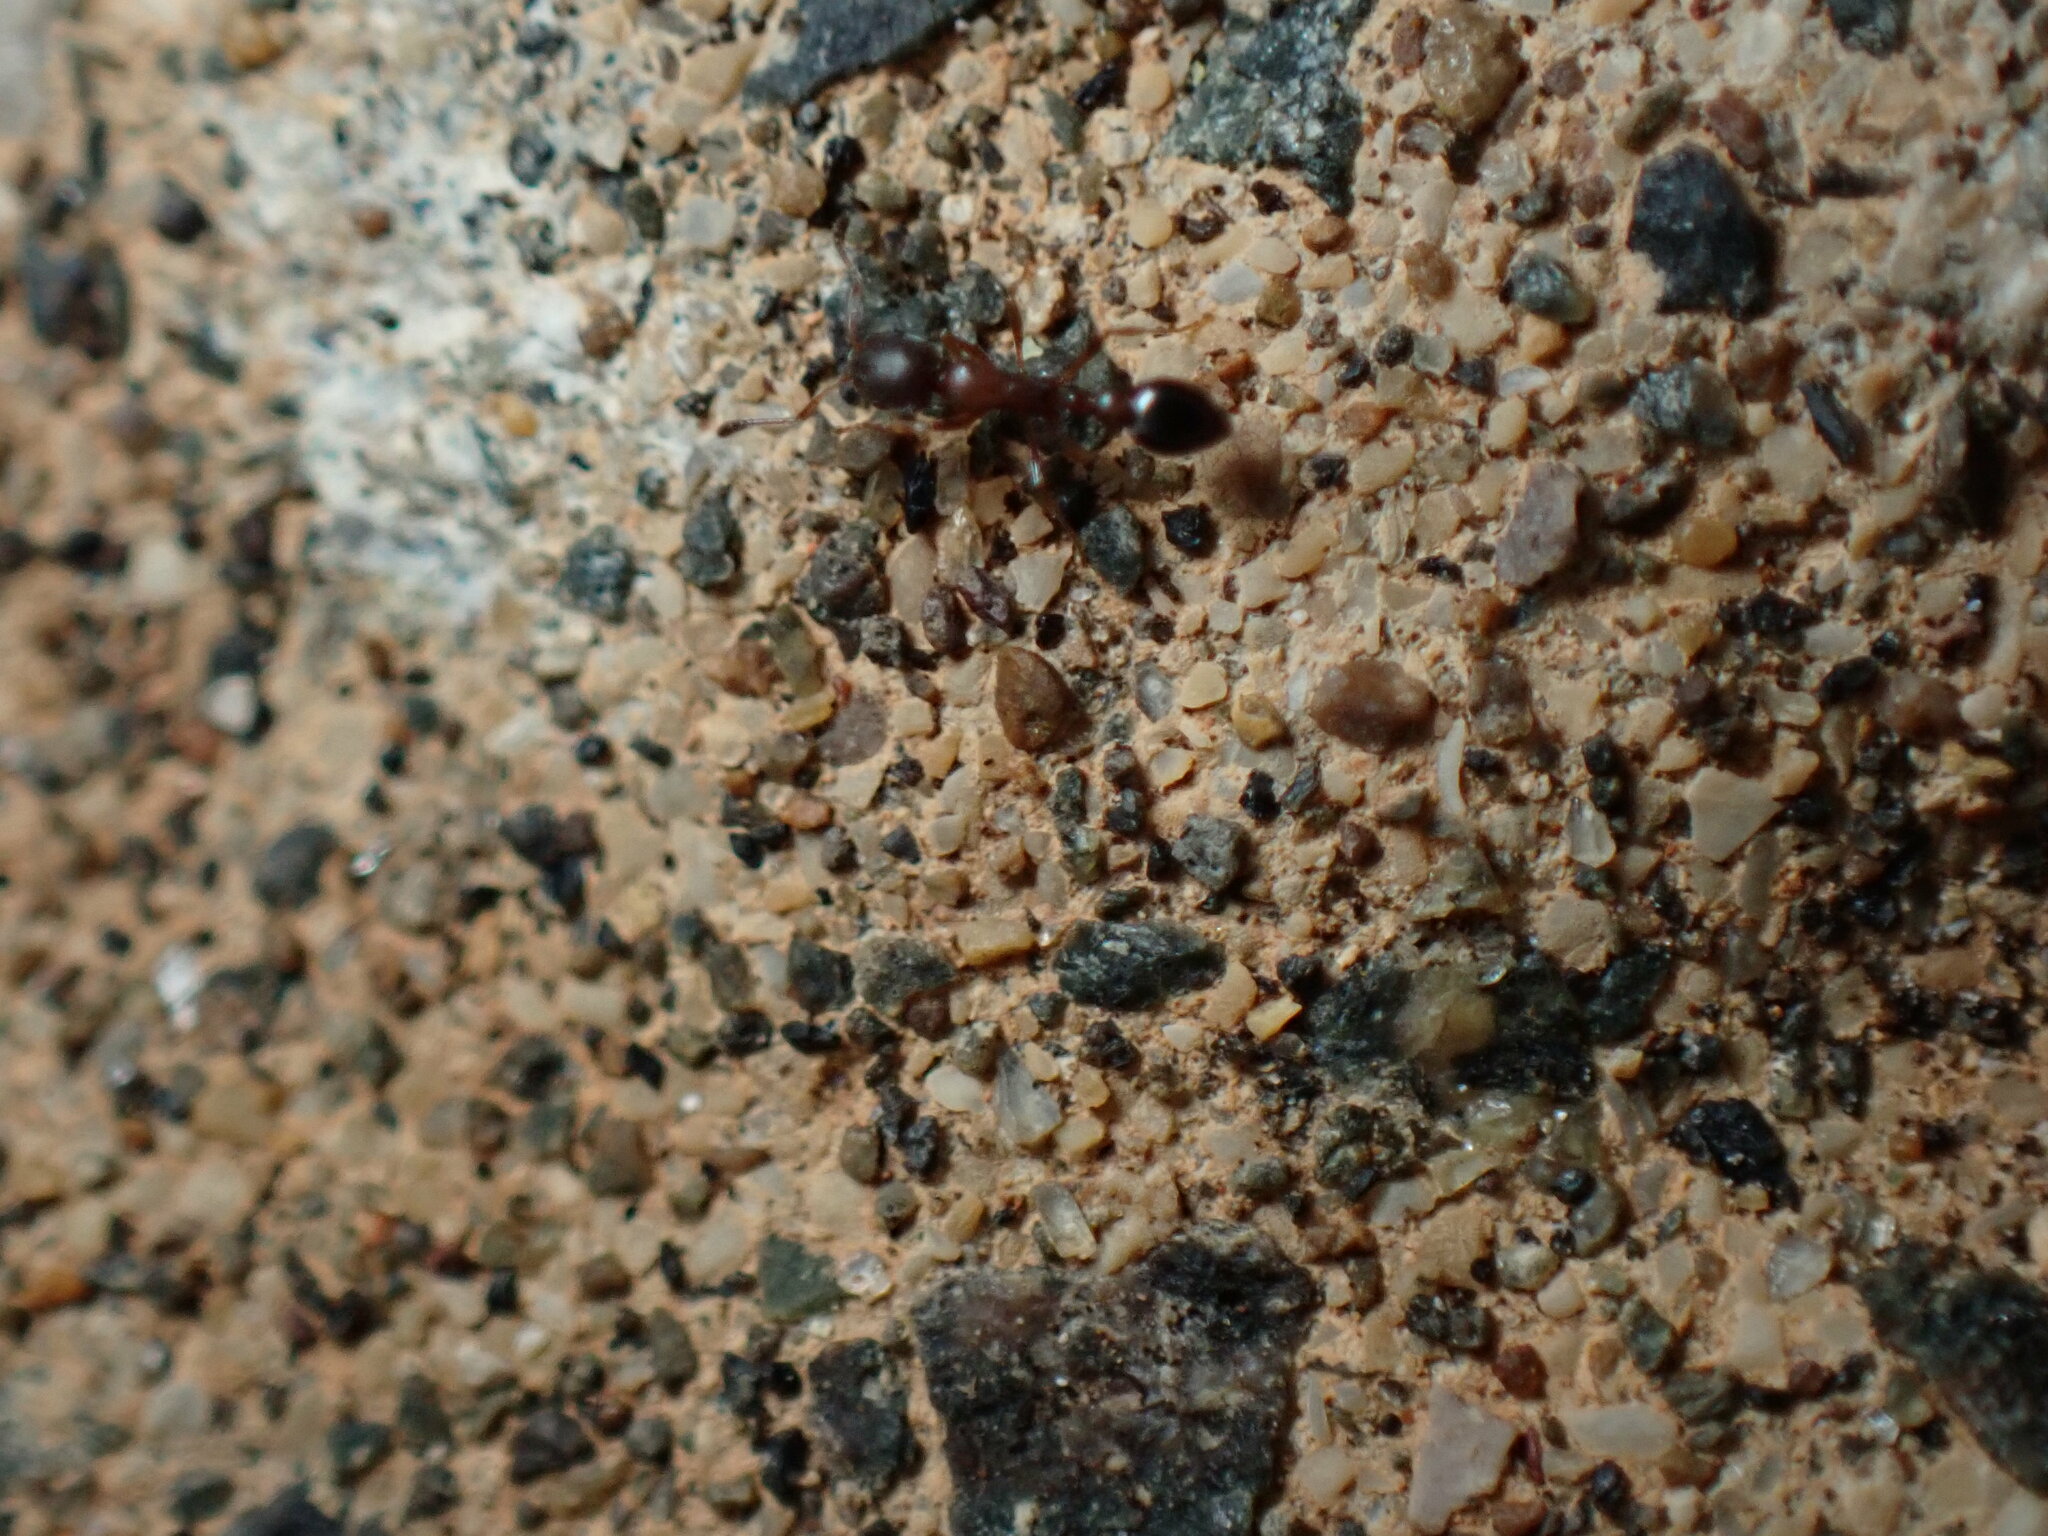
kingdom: Animalia
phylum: Arthropoda
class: Insecta
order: Hymenoptera
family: Formicidae
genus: Cardiocondyla
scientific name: Cardiocondyla mauritanica
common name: Sneaking ant
